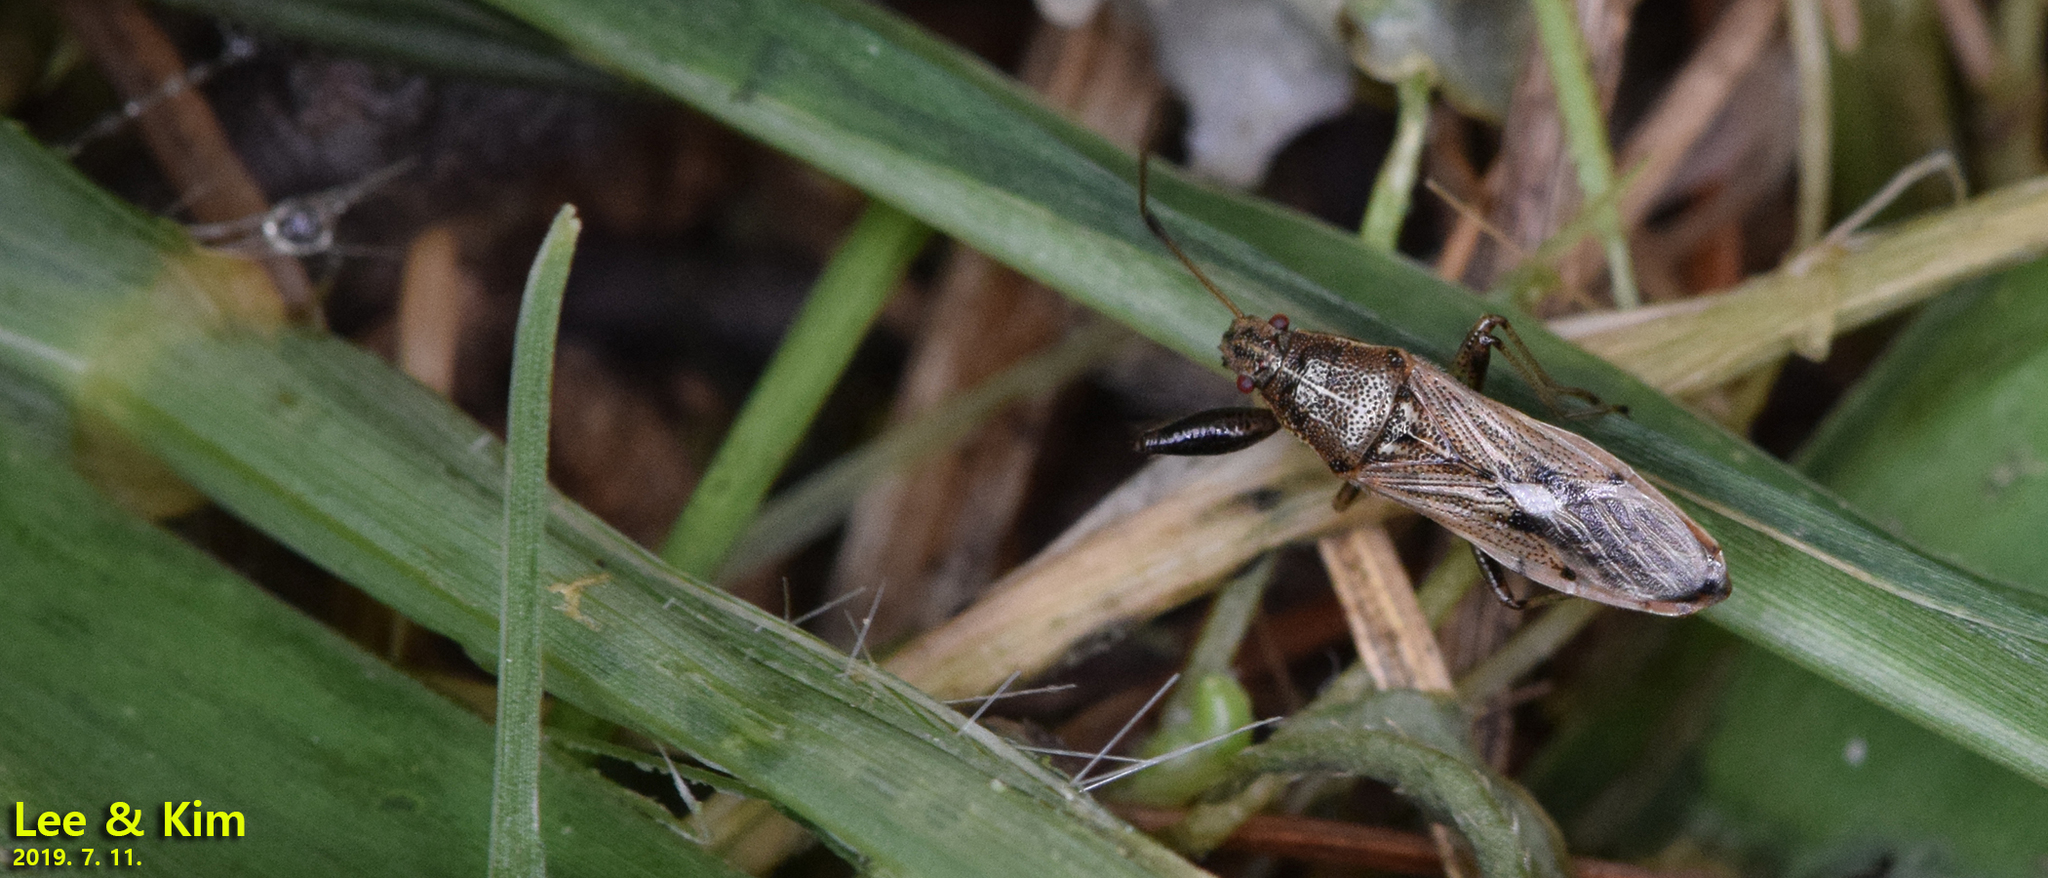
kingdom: Animalia
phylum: Arthropoda
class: Insecta
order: Hemiptera
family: Pachygronthidae
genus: Pachygrontha
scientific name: Pachygrontha antennata
